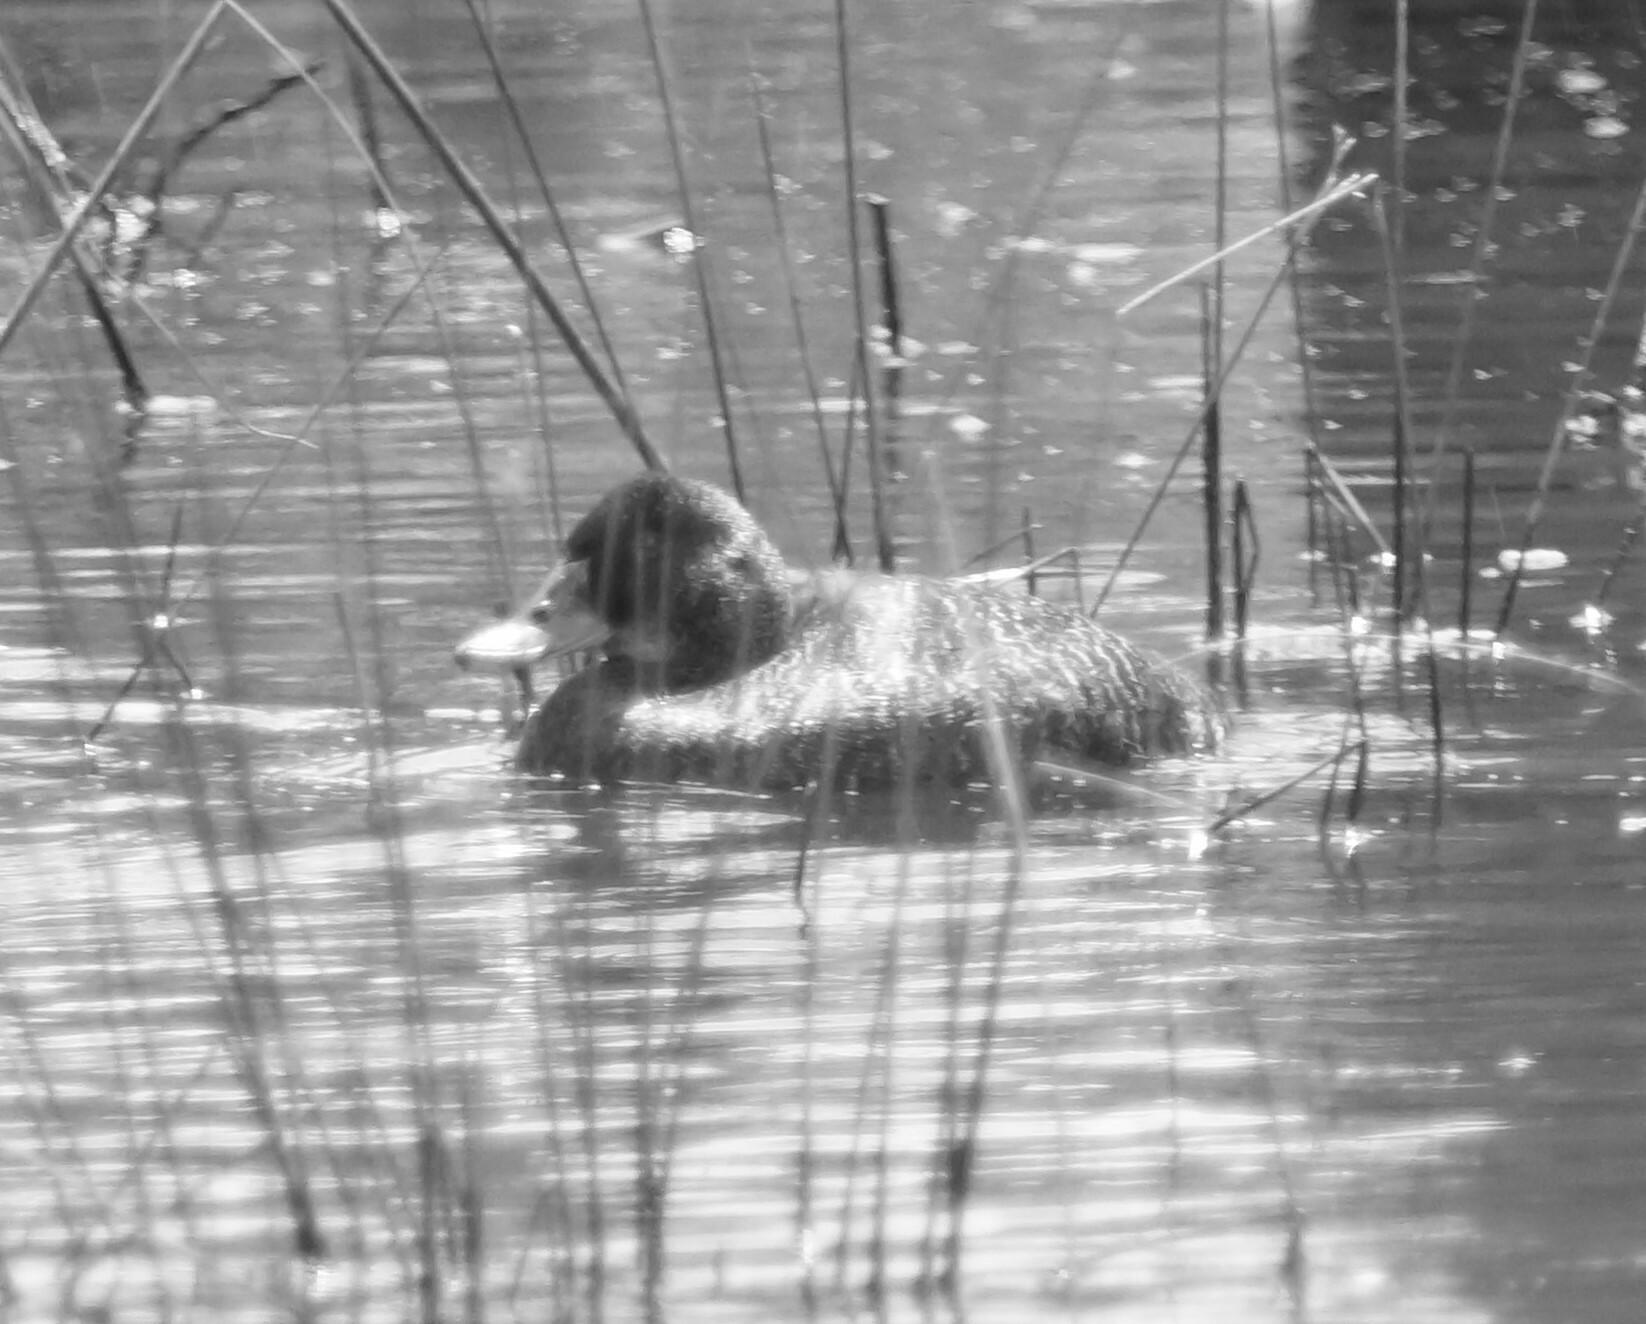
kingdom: Animalia
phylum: Chordata
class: Aves
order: Anseriformes
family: Anatidae
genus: Oxyura
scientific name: Oxyura australis
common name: Blue-billed duck
